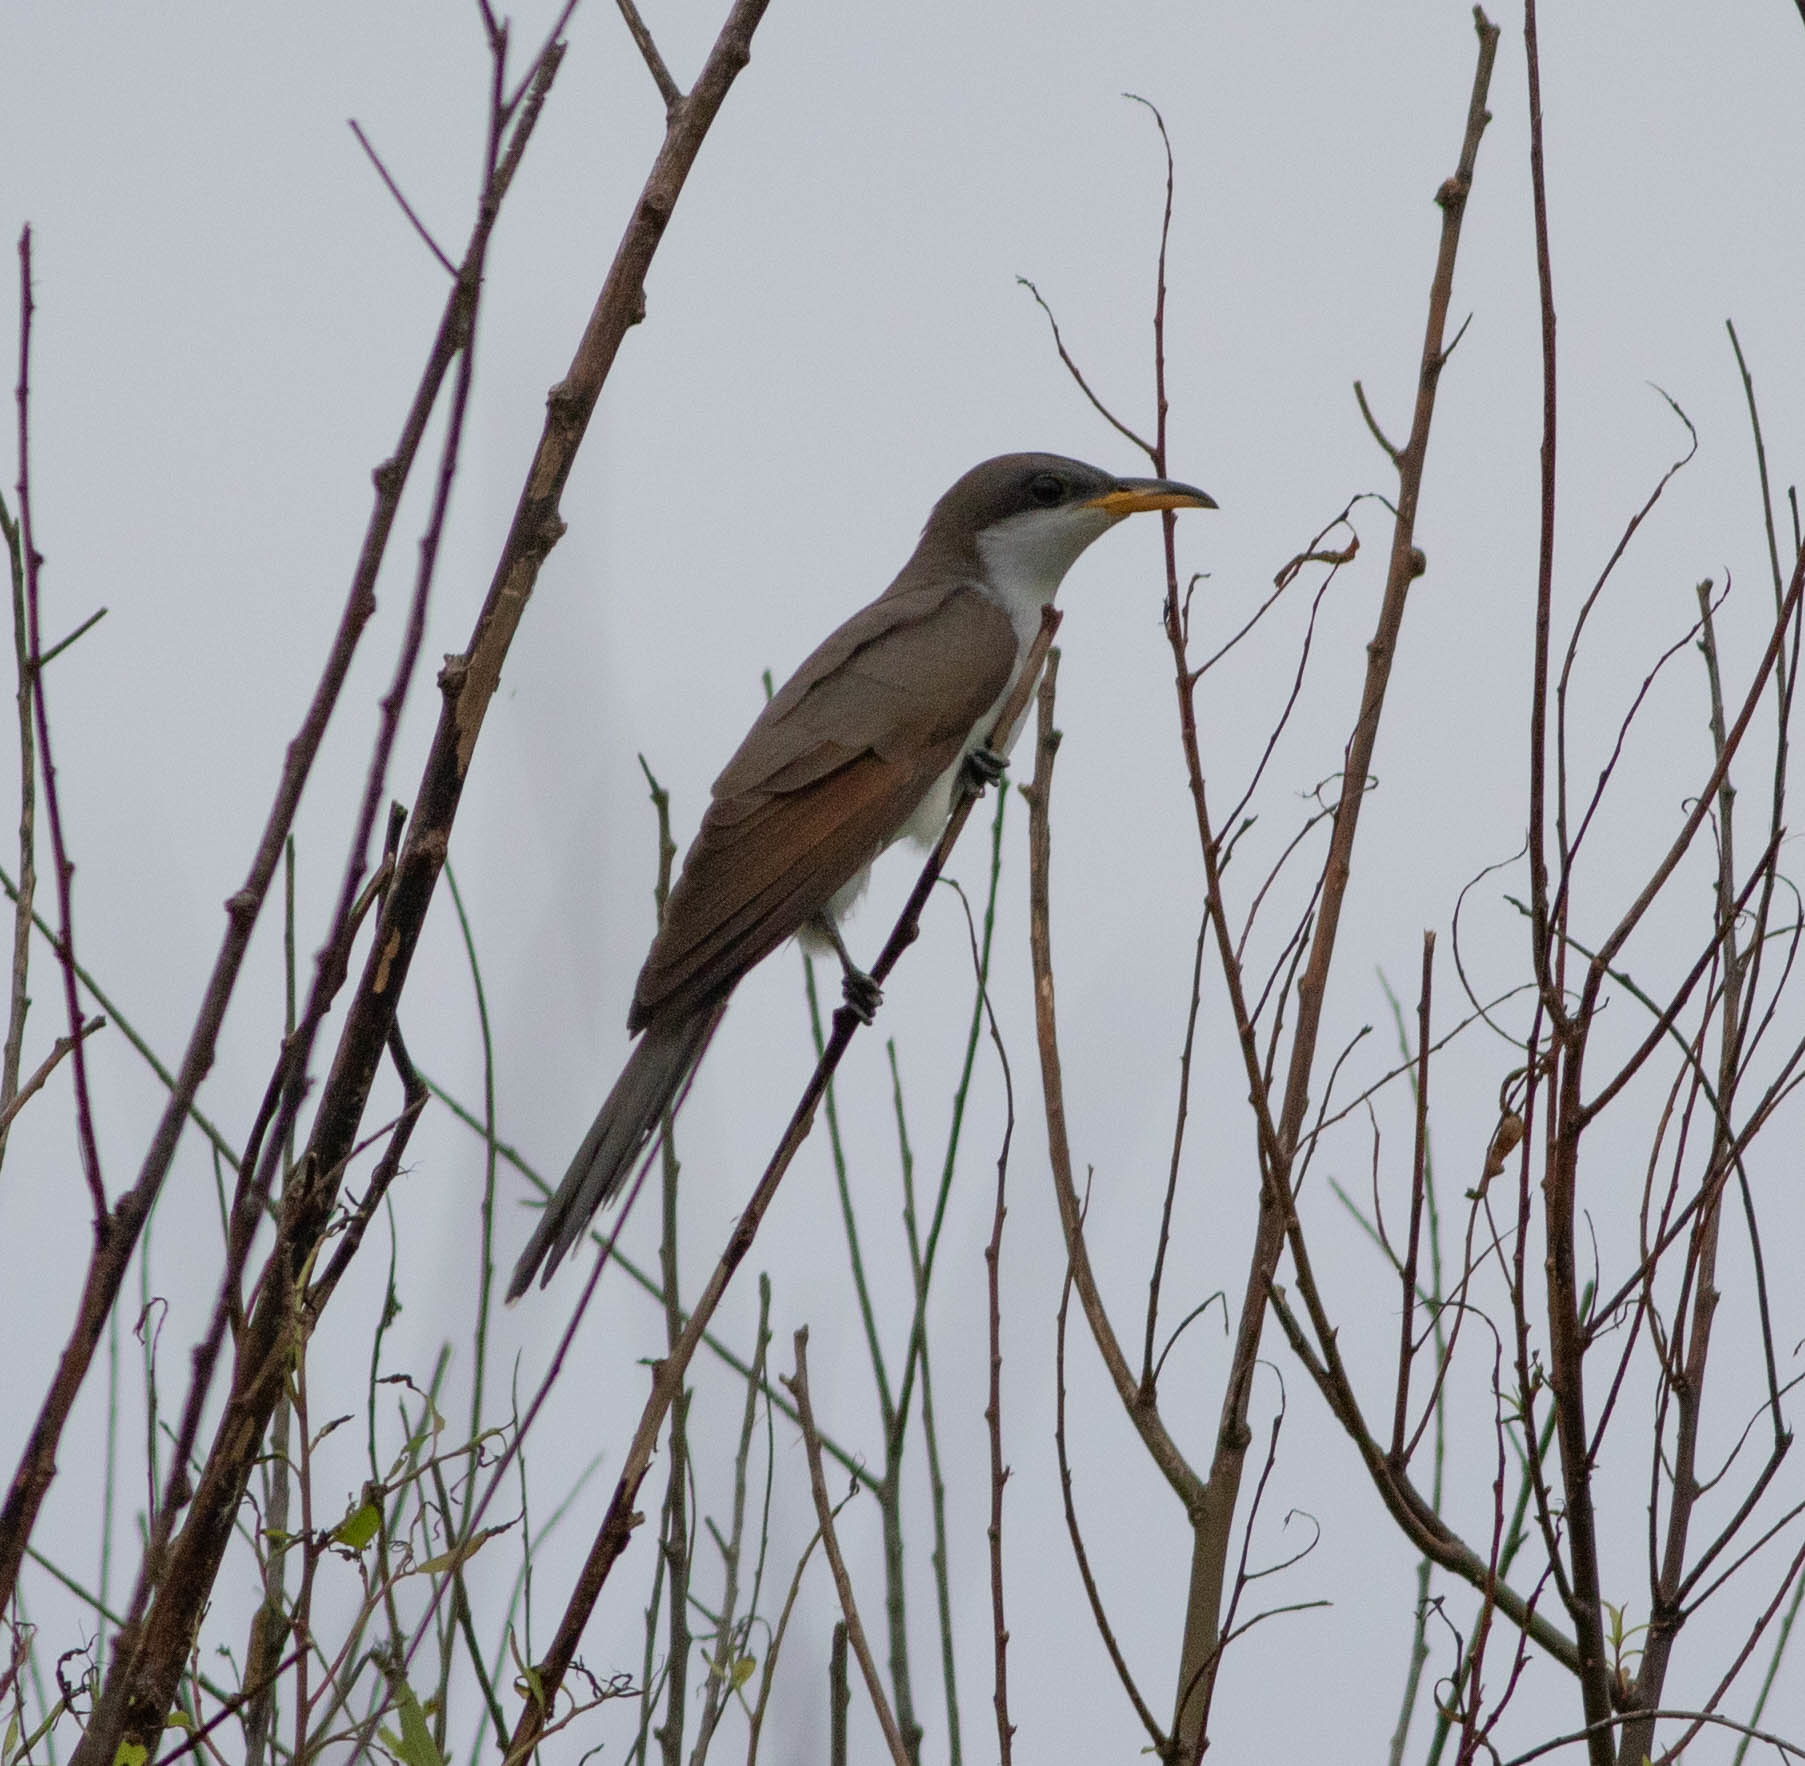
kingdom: Animalia
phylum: Chordata
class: Aves
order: Cuculiformes
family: Cuculidae
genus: Coccyzus
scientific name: Coccyzus americanus
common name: Yellow-billed cuckoo
